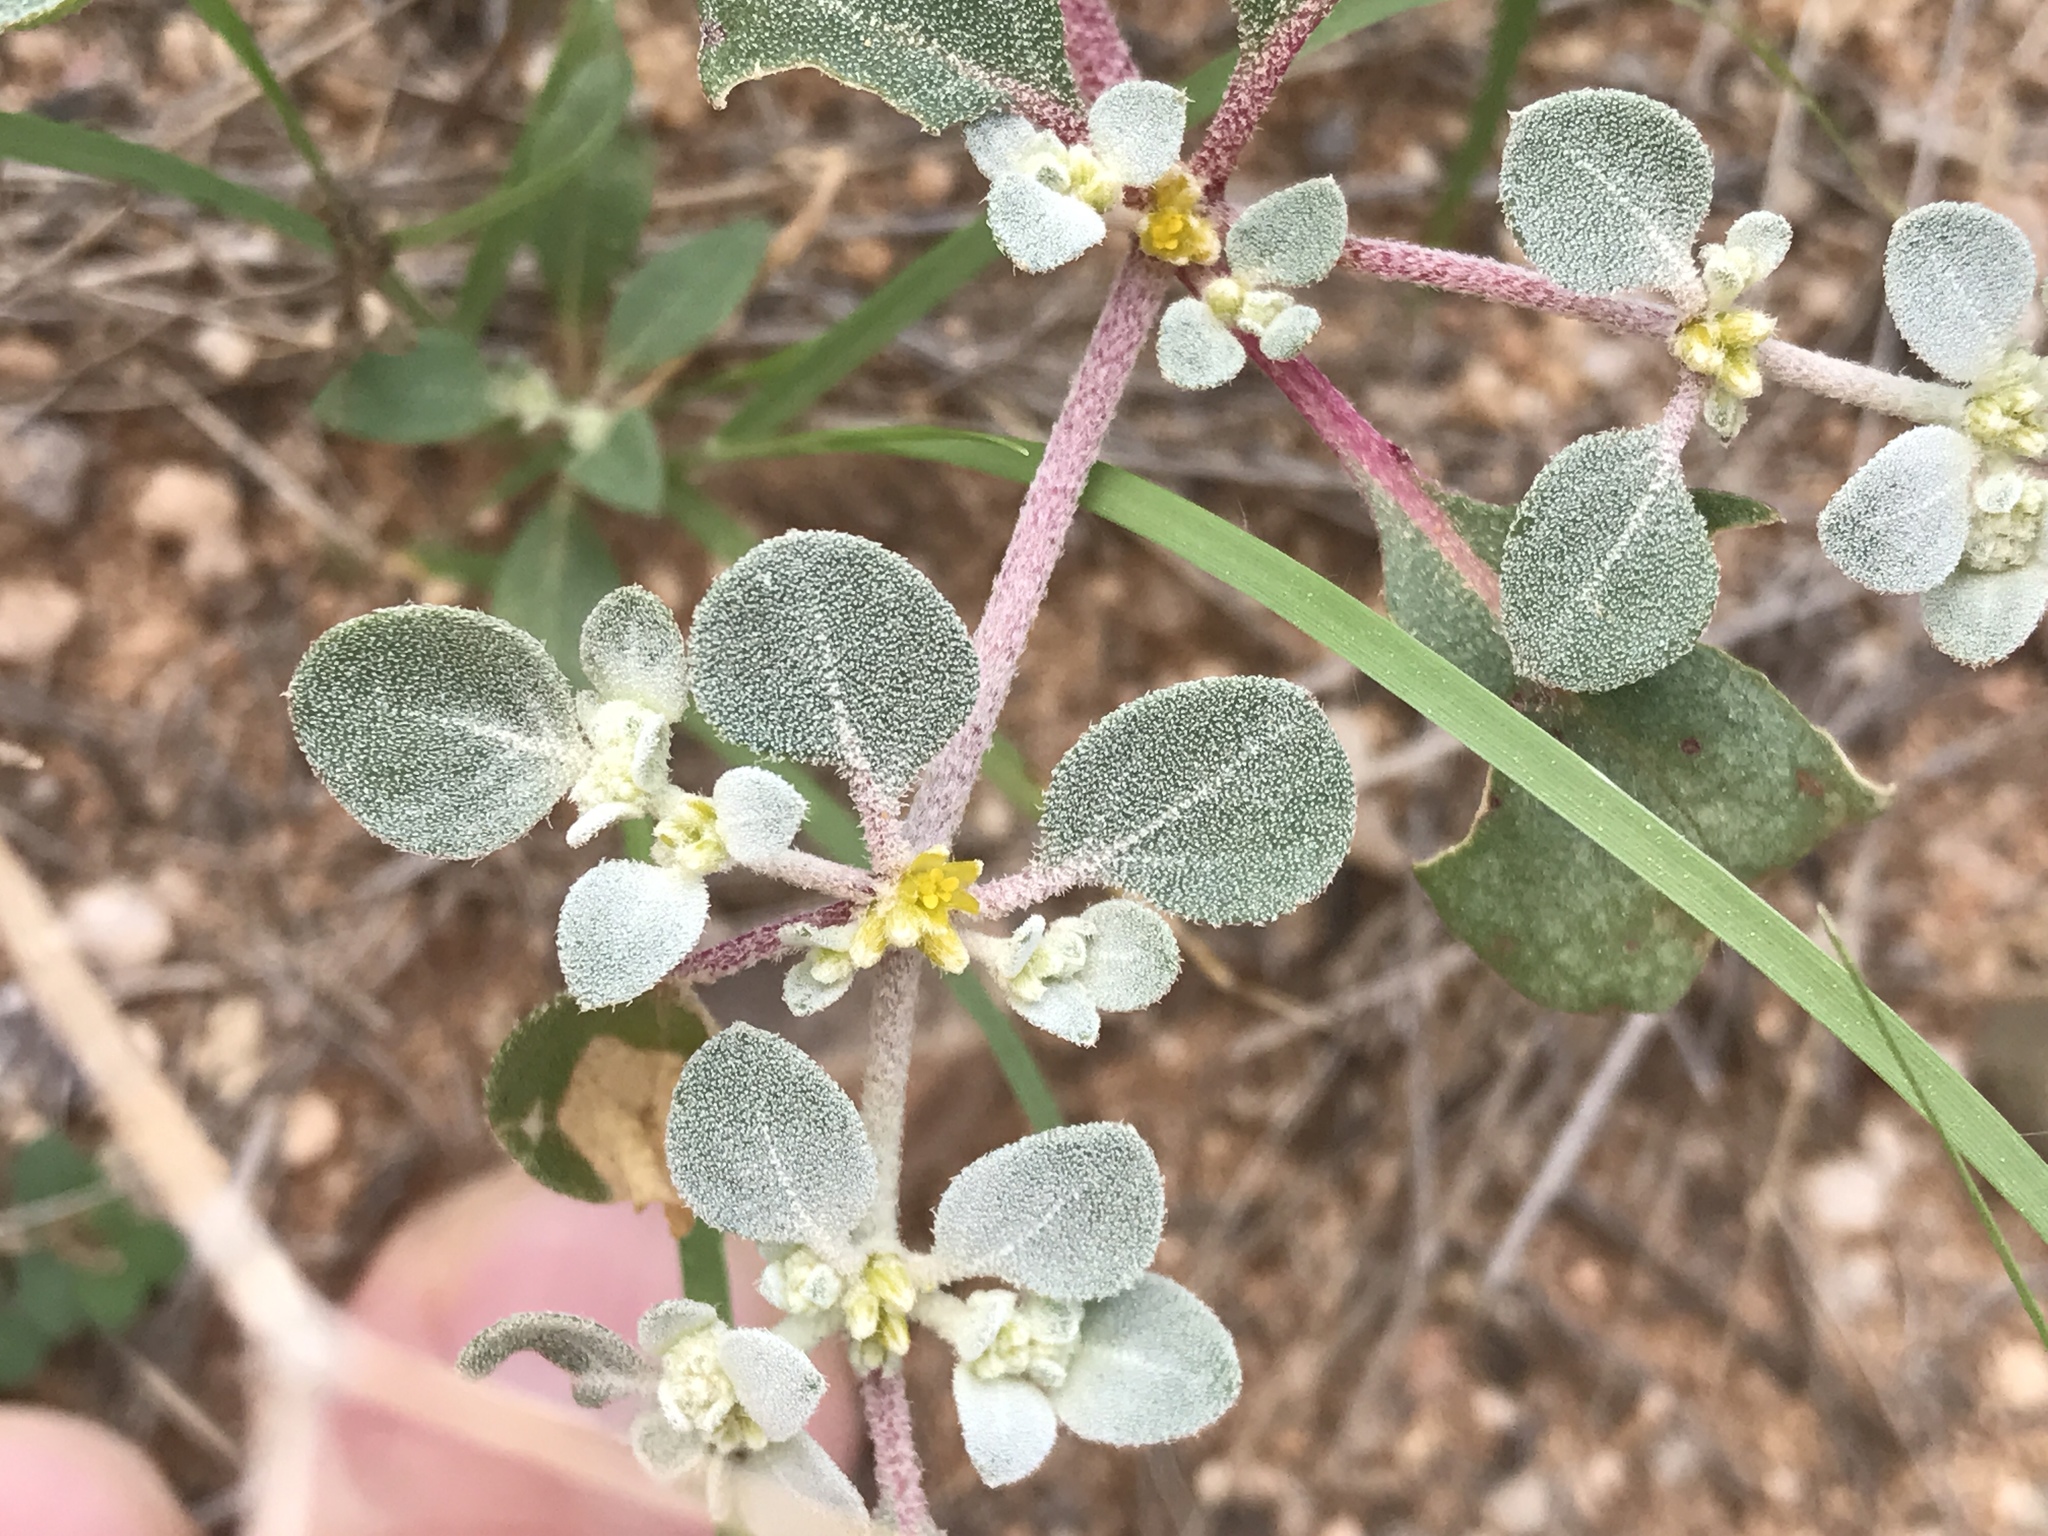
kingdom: Plantae
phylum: Tracheophyta
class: Magnoliopsida
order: Caryophyllales
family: Amaranthaceae
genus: Tidestromia
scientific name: Tidestromia lanuginosa
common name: Woolly tidestromia
